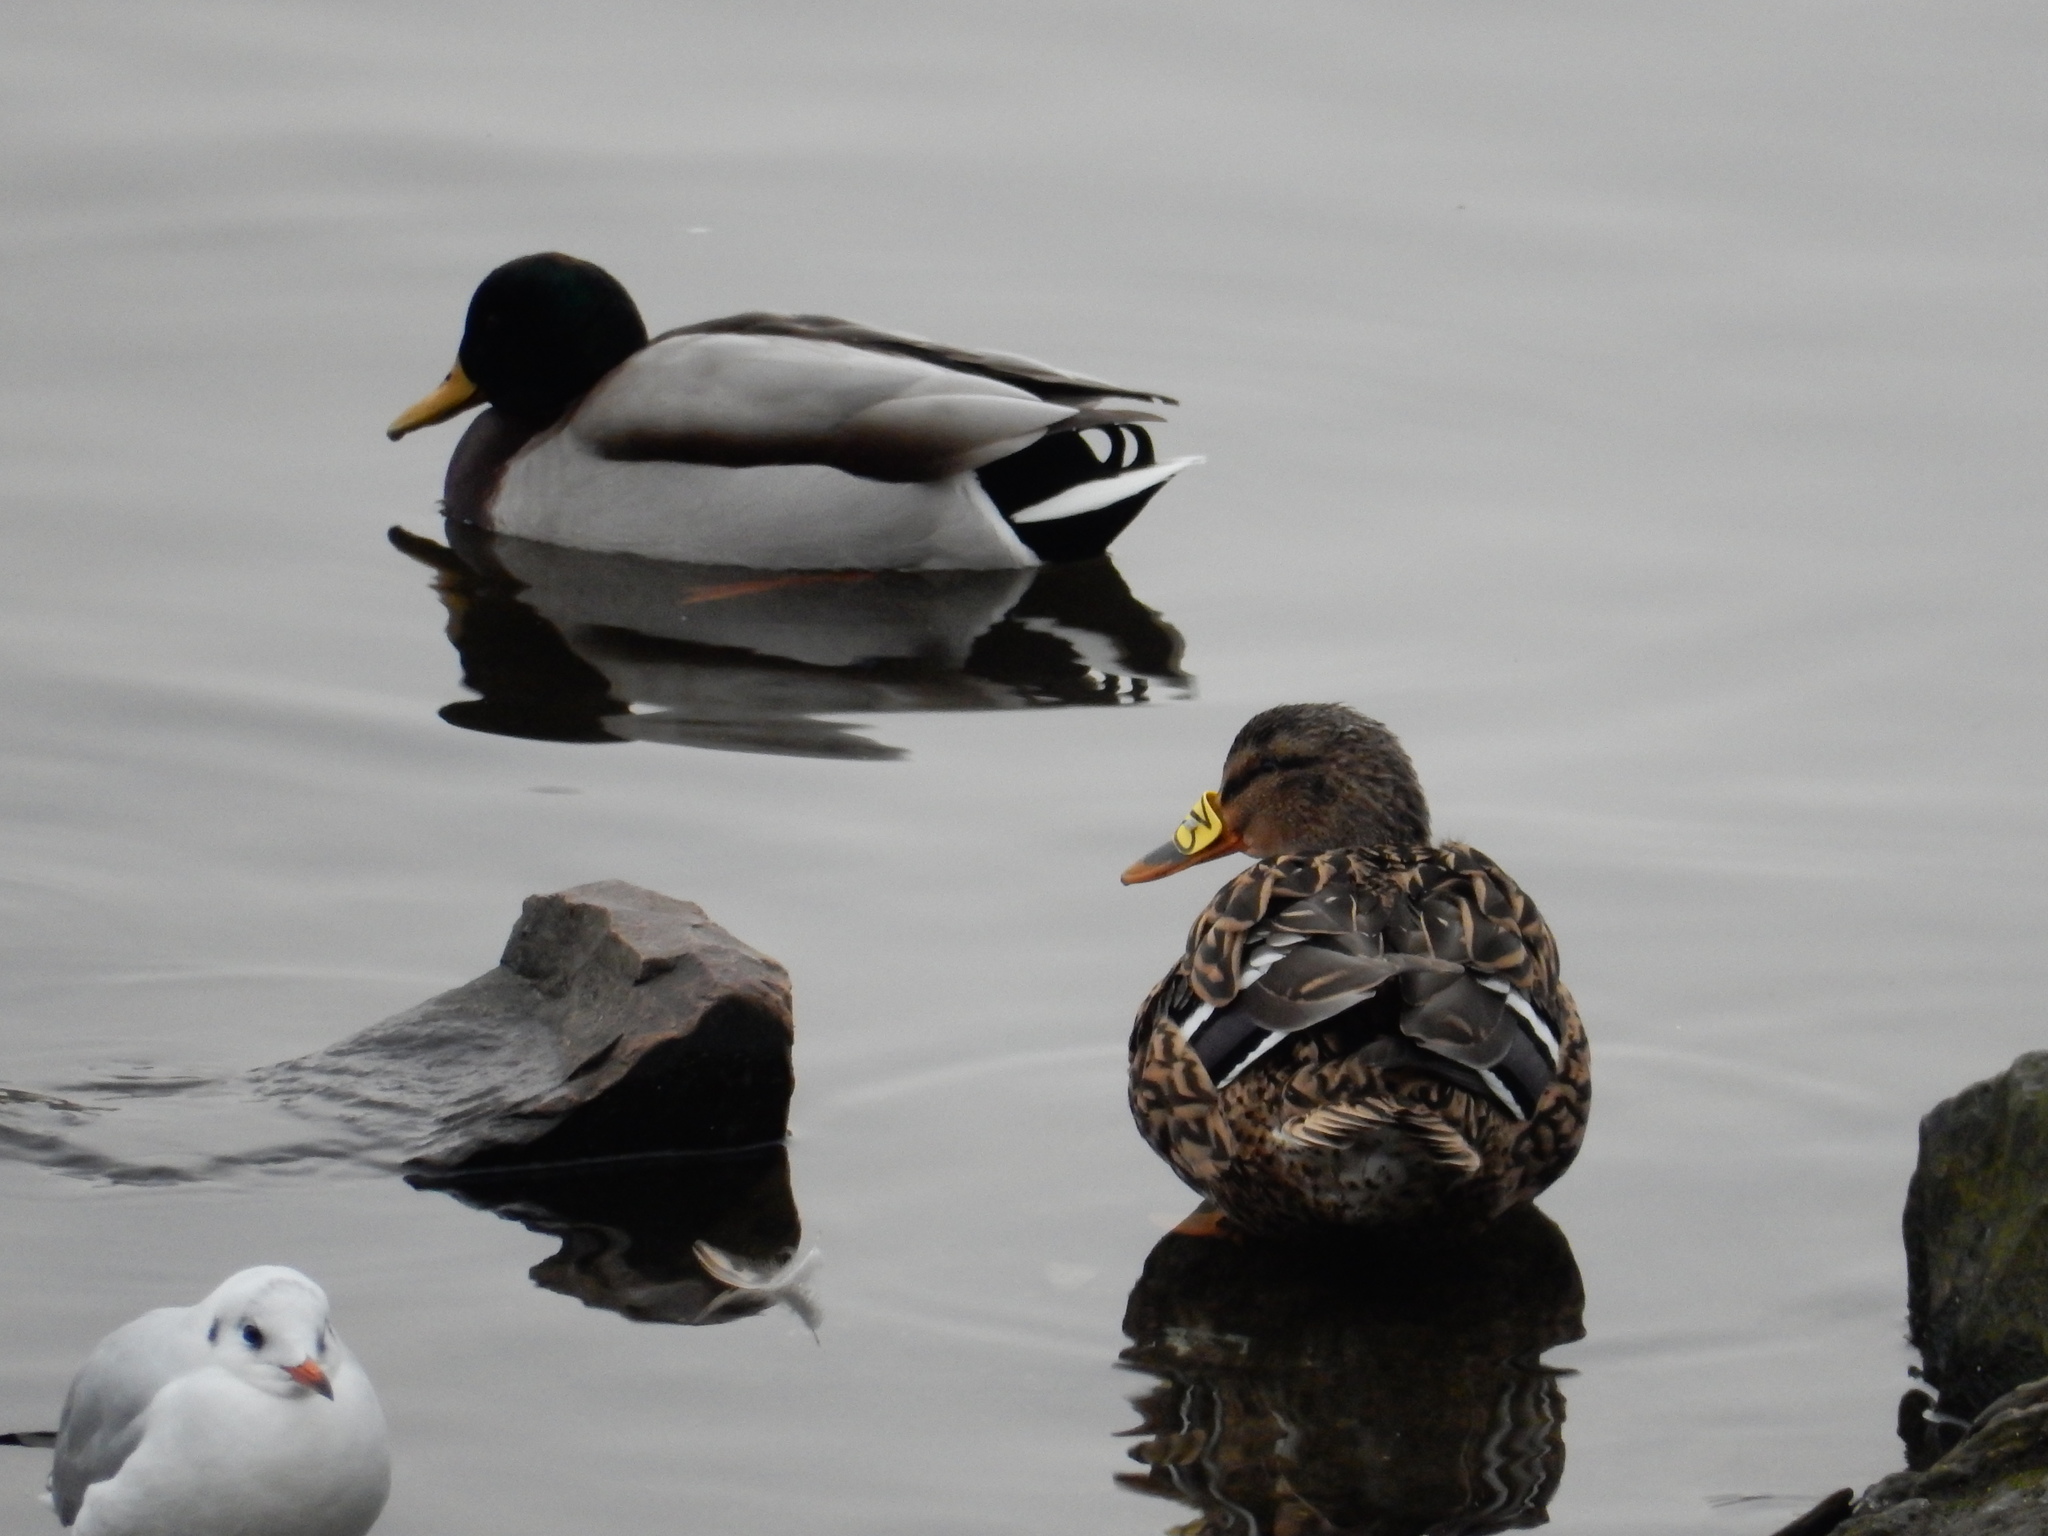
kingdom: Animalia
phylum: Chordata
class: Aves
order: Anseriformes
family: Anatidae
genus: Anas
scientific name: Anas platyrhynchos
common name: Mallard
